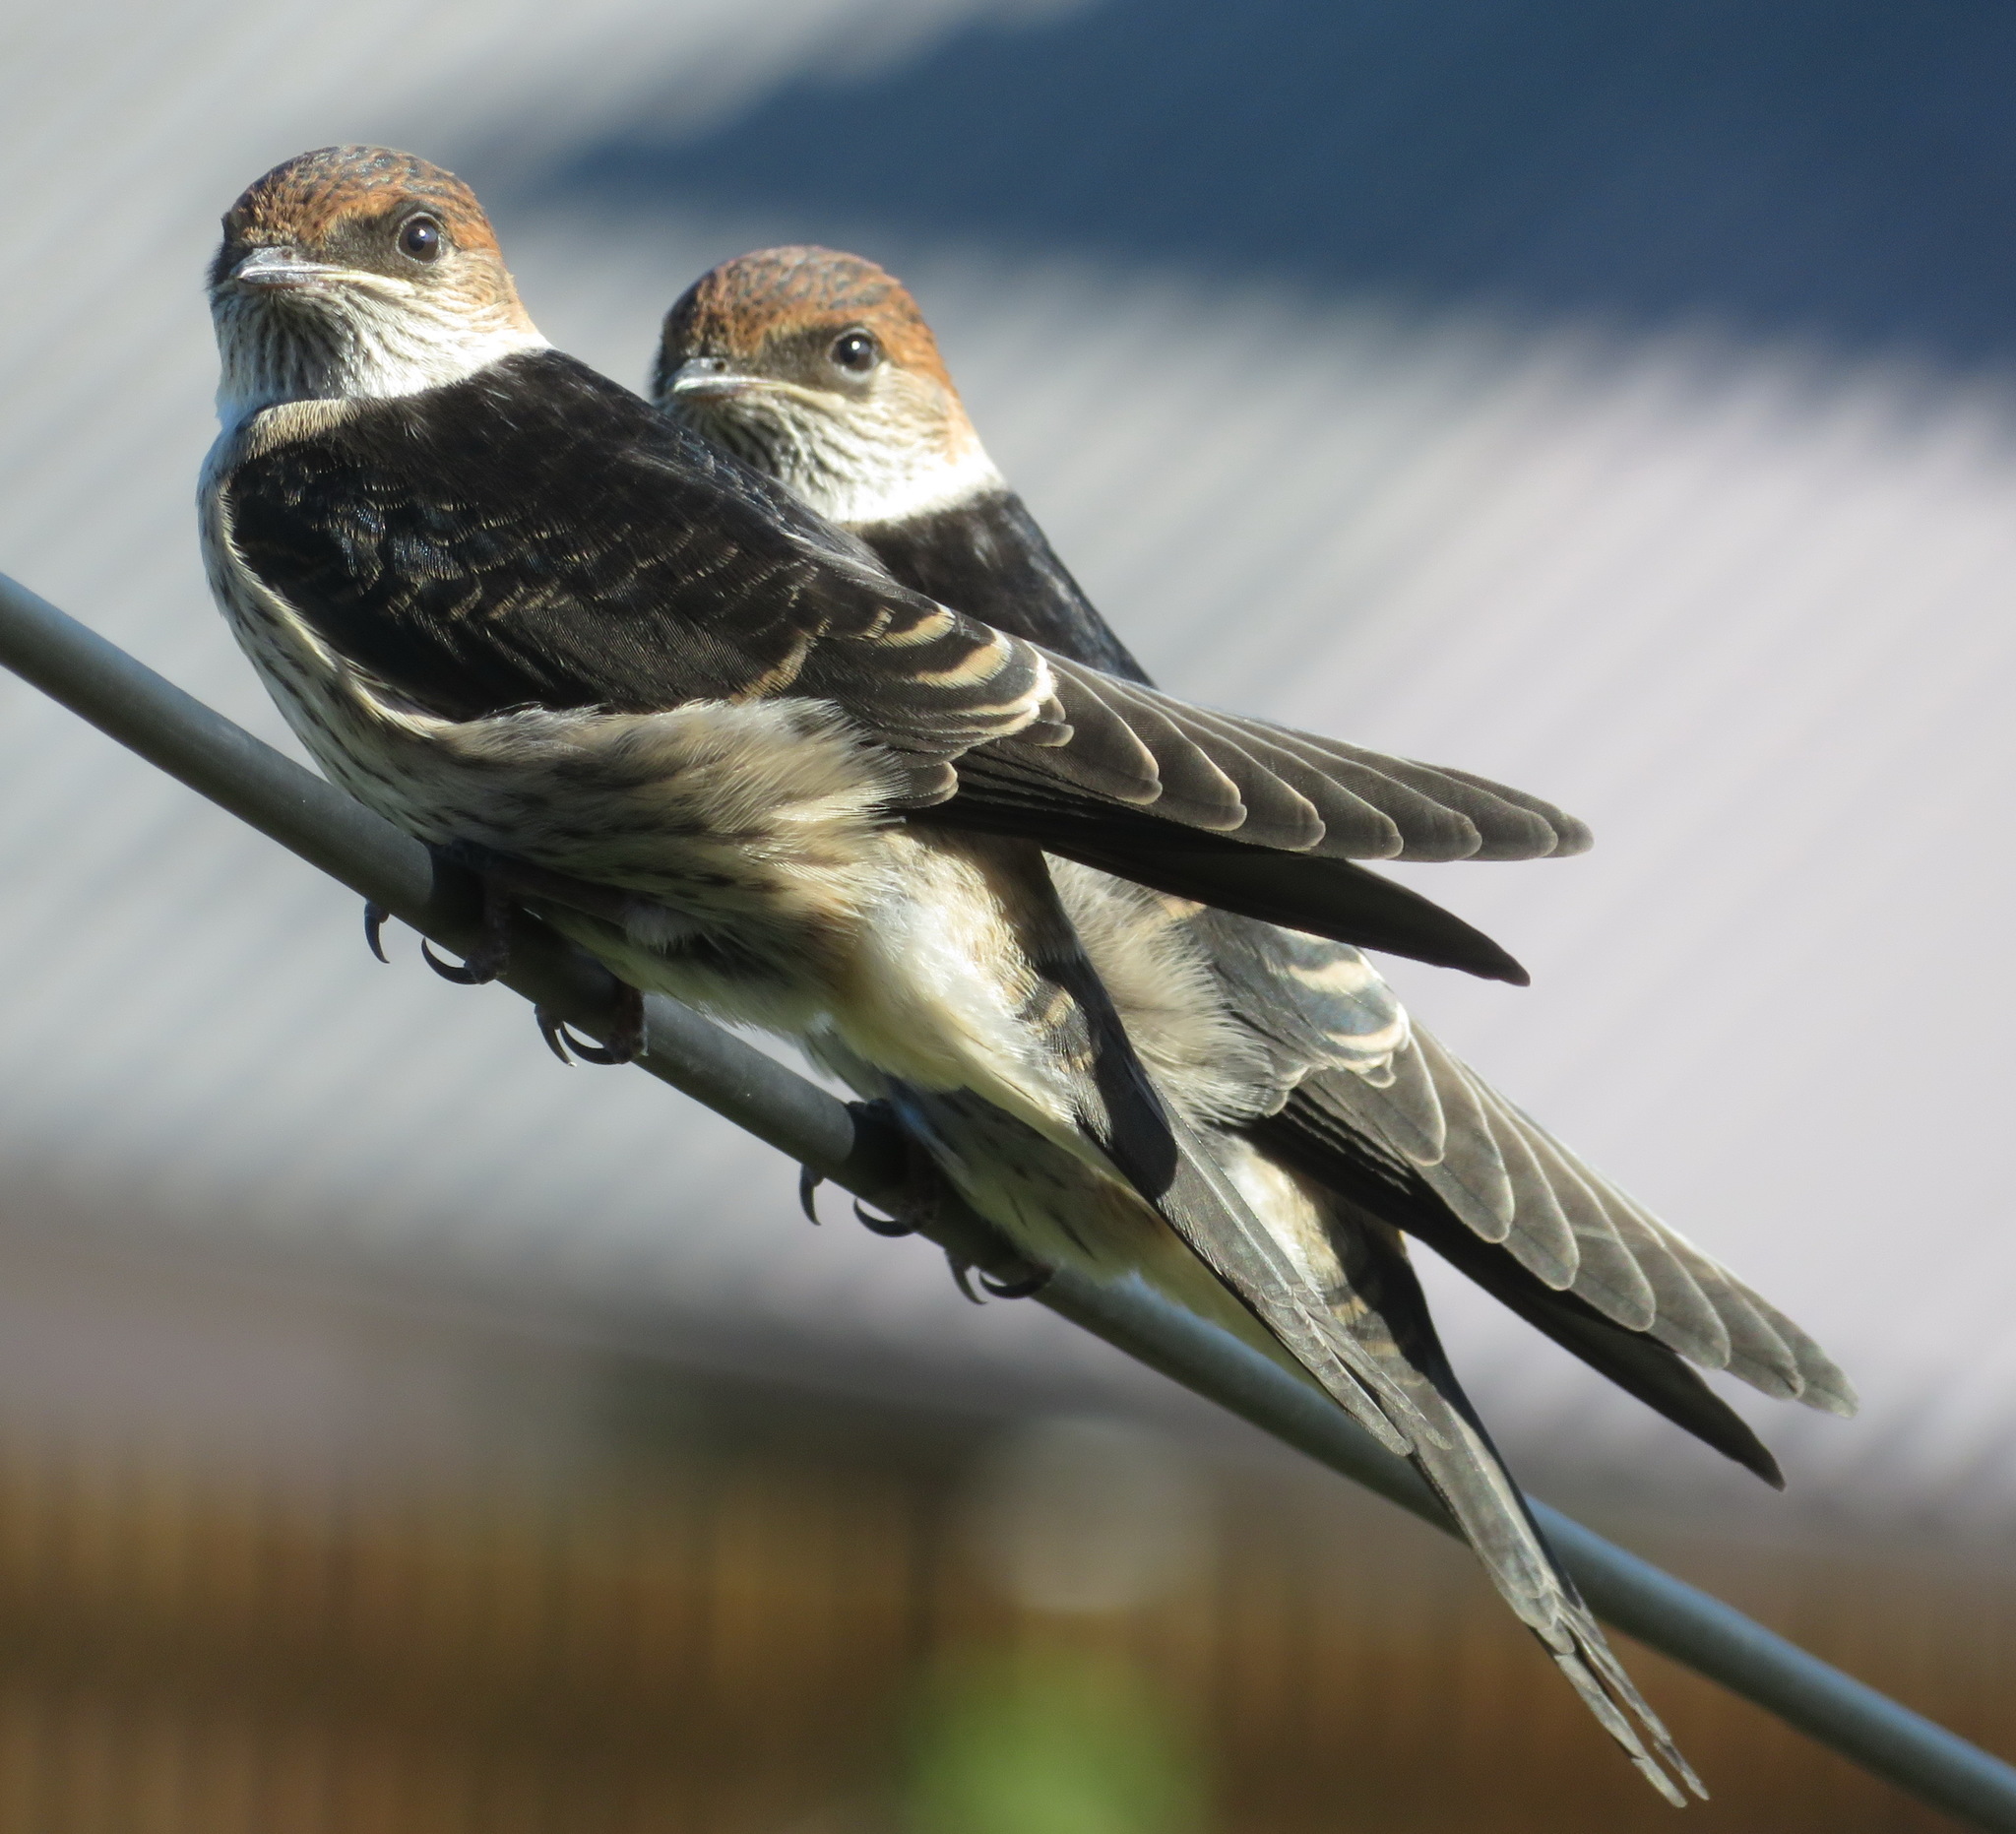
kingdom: Animalia
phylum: Chordata
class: Aves
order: Passeriformes
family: Hirundinidae
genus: Cecropis
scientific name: Cecropis cucullata
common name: Greater striped-swallow
